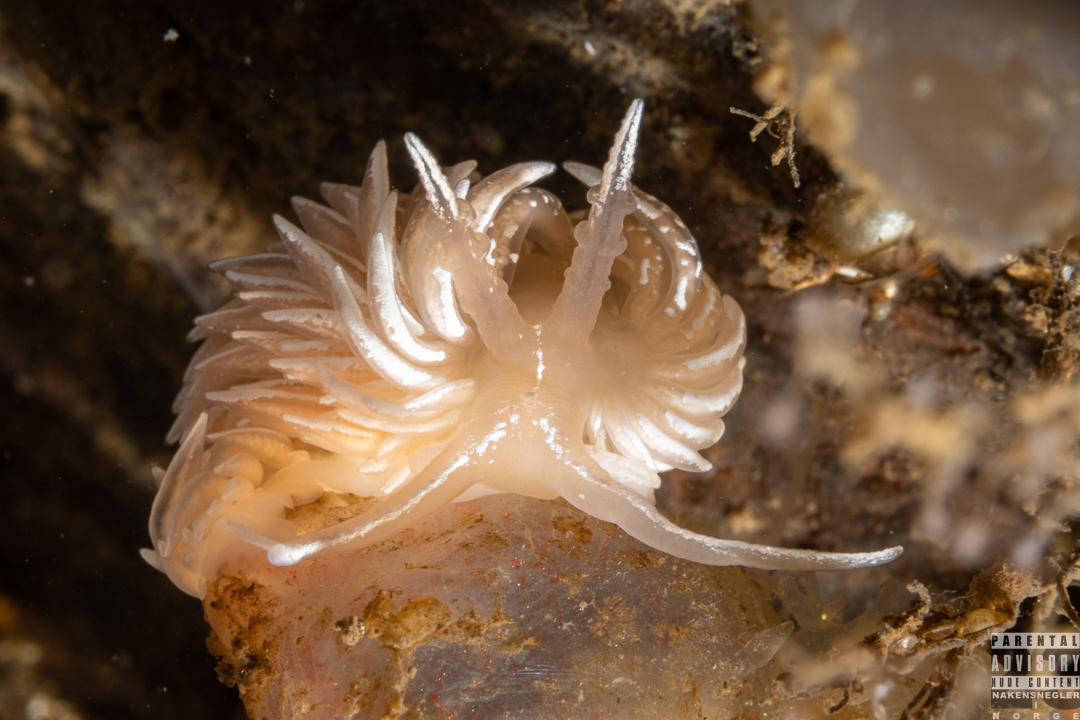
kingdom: Animalia
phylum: Mollusca
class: Gastropoda
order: Nudibranchia
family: Facelinidae
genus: Favorinus
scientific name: Favorinus blianus
